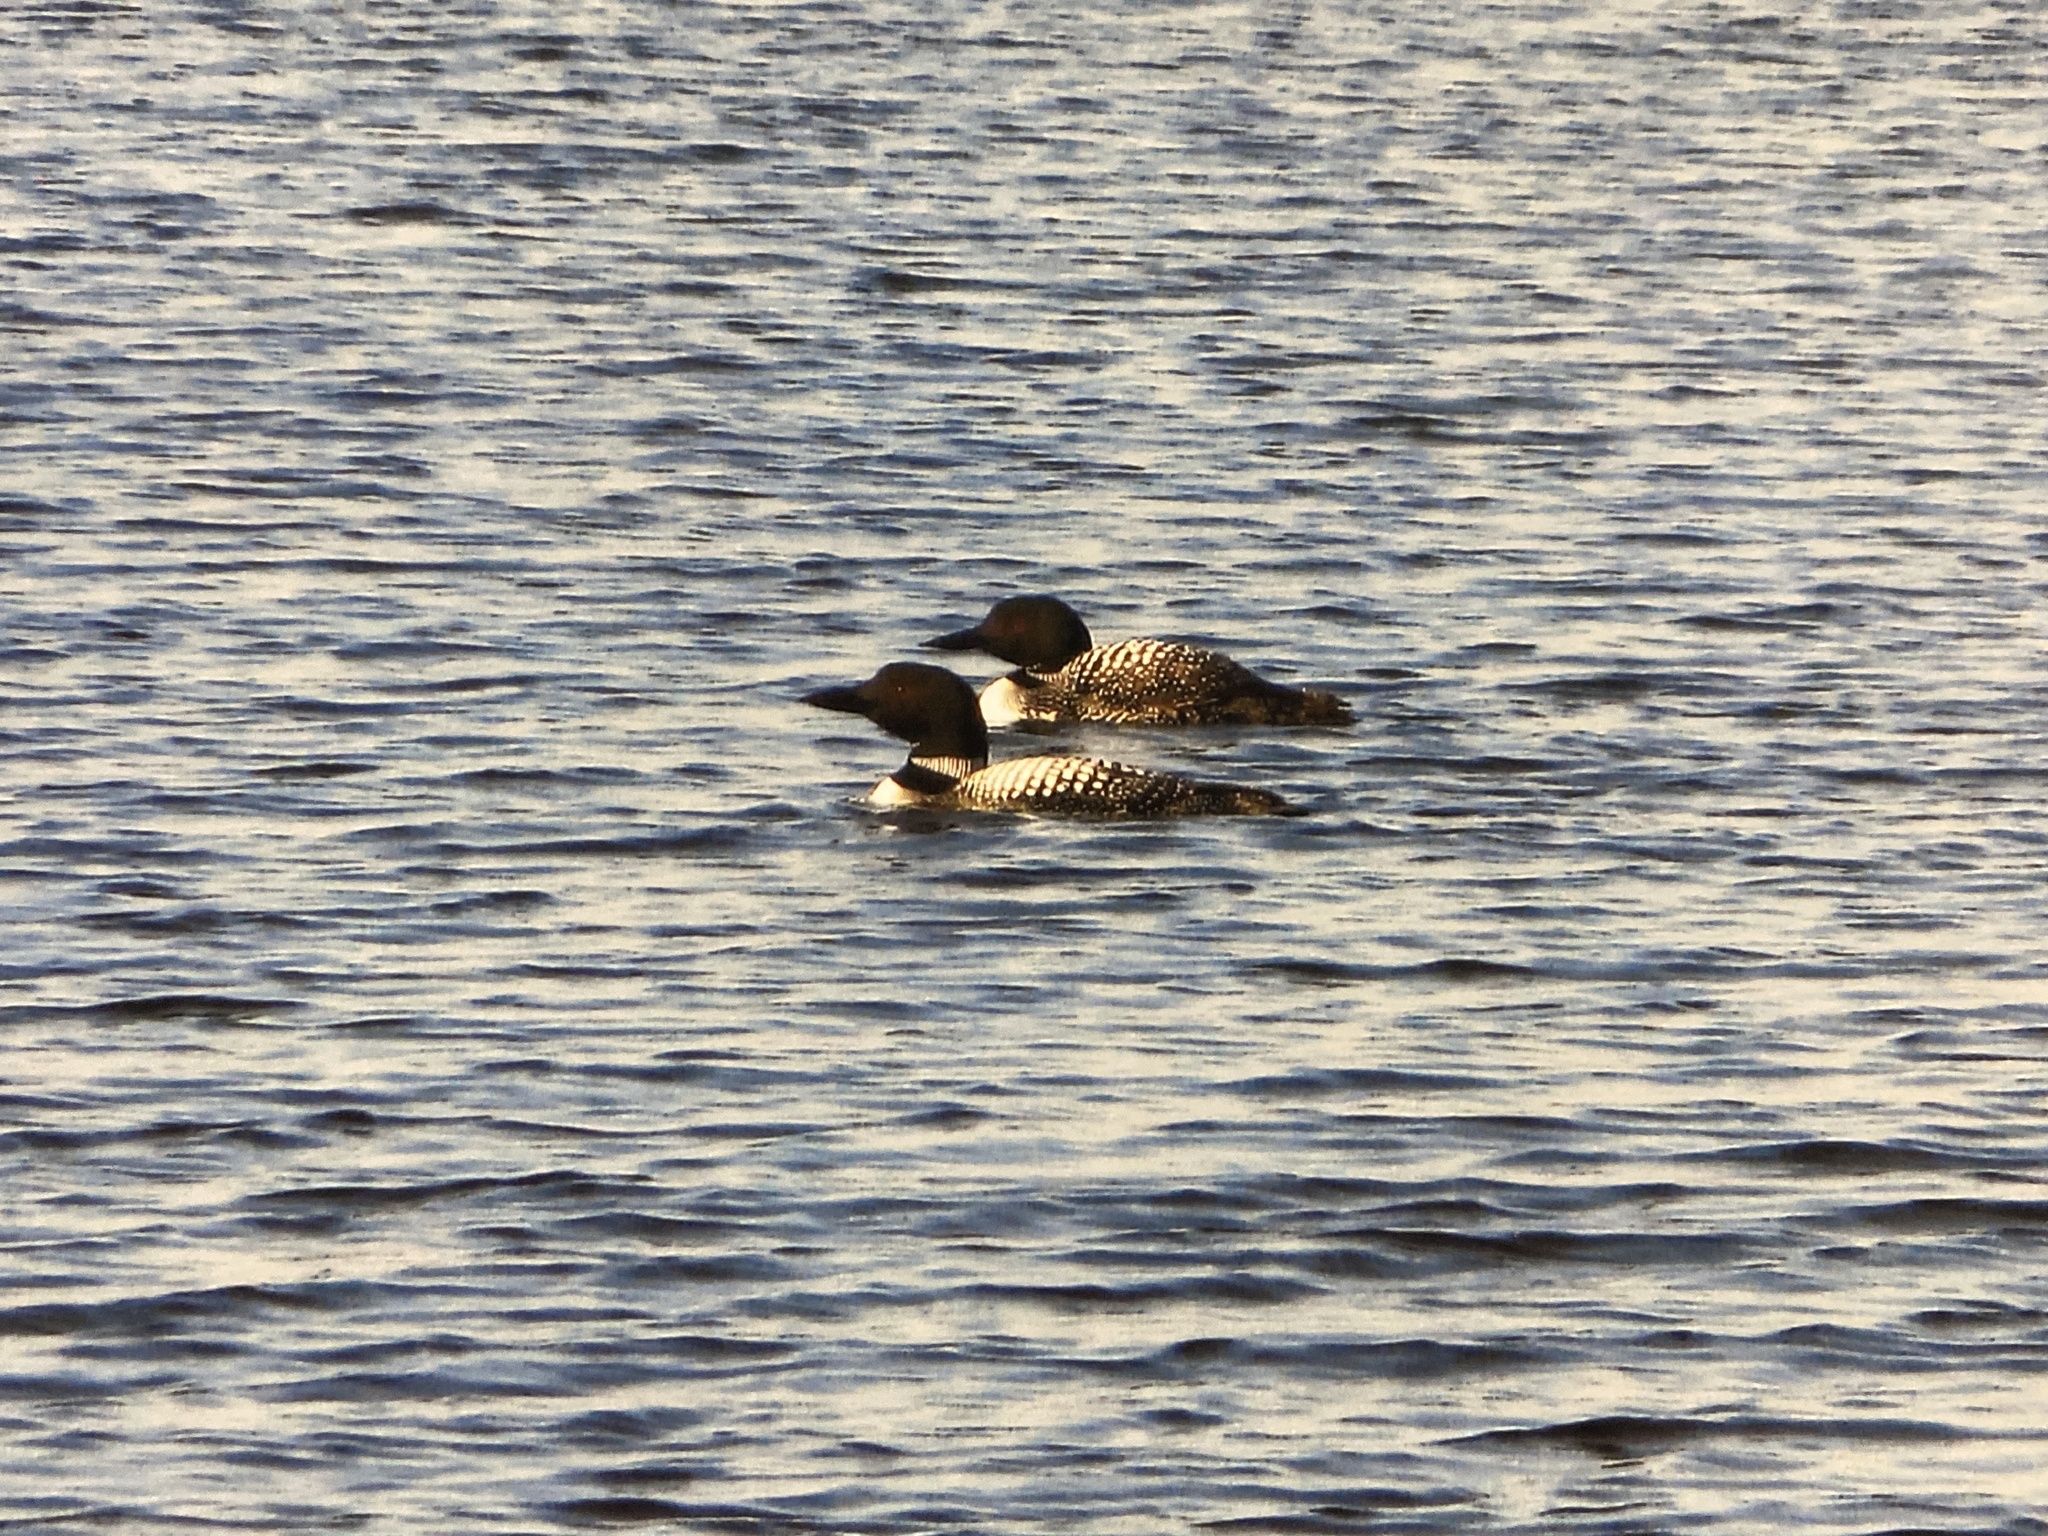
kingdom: Animalia
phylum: Chordata
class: Aves
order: Gaviiformes
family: Gaviidae
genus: Gavia
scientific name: Gavia immer
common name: Common loon
